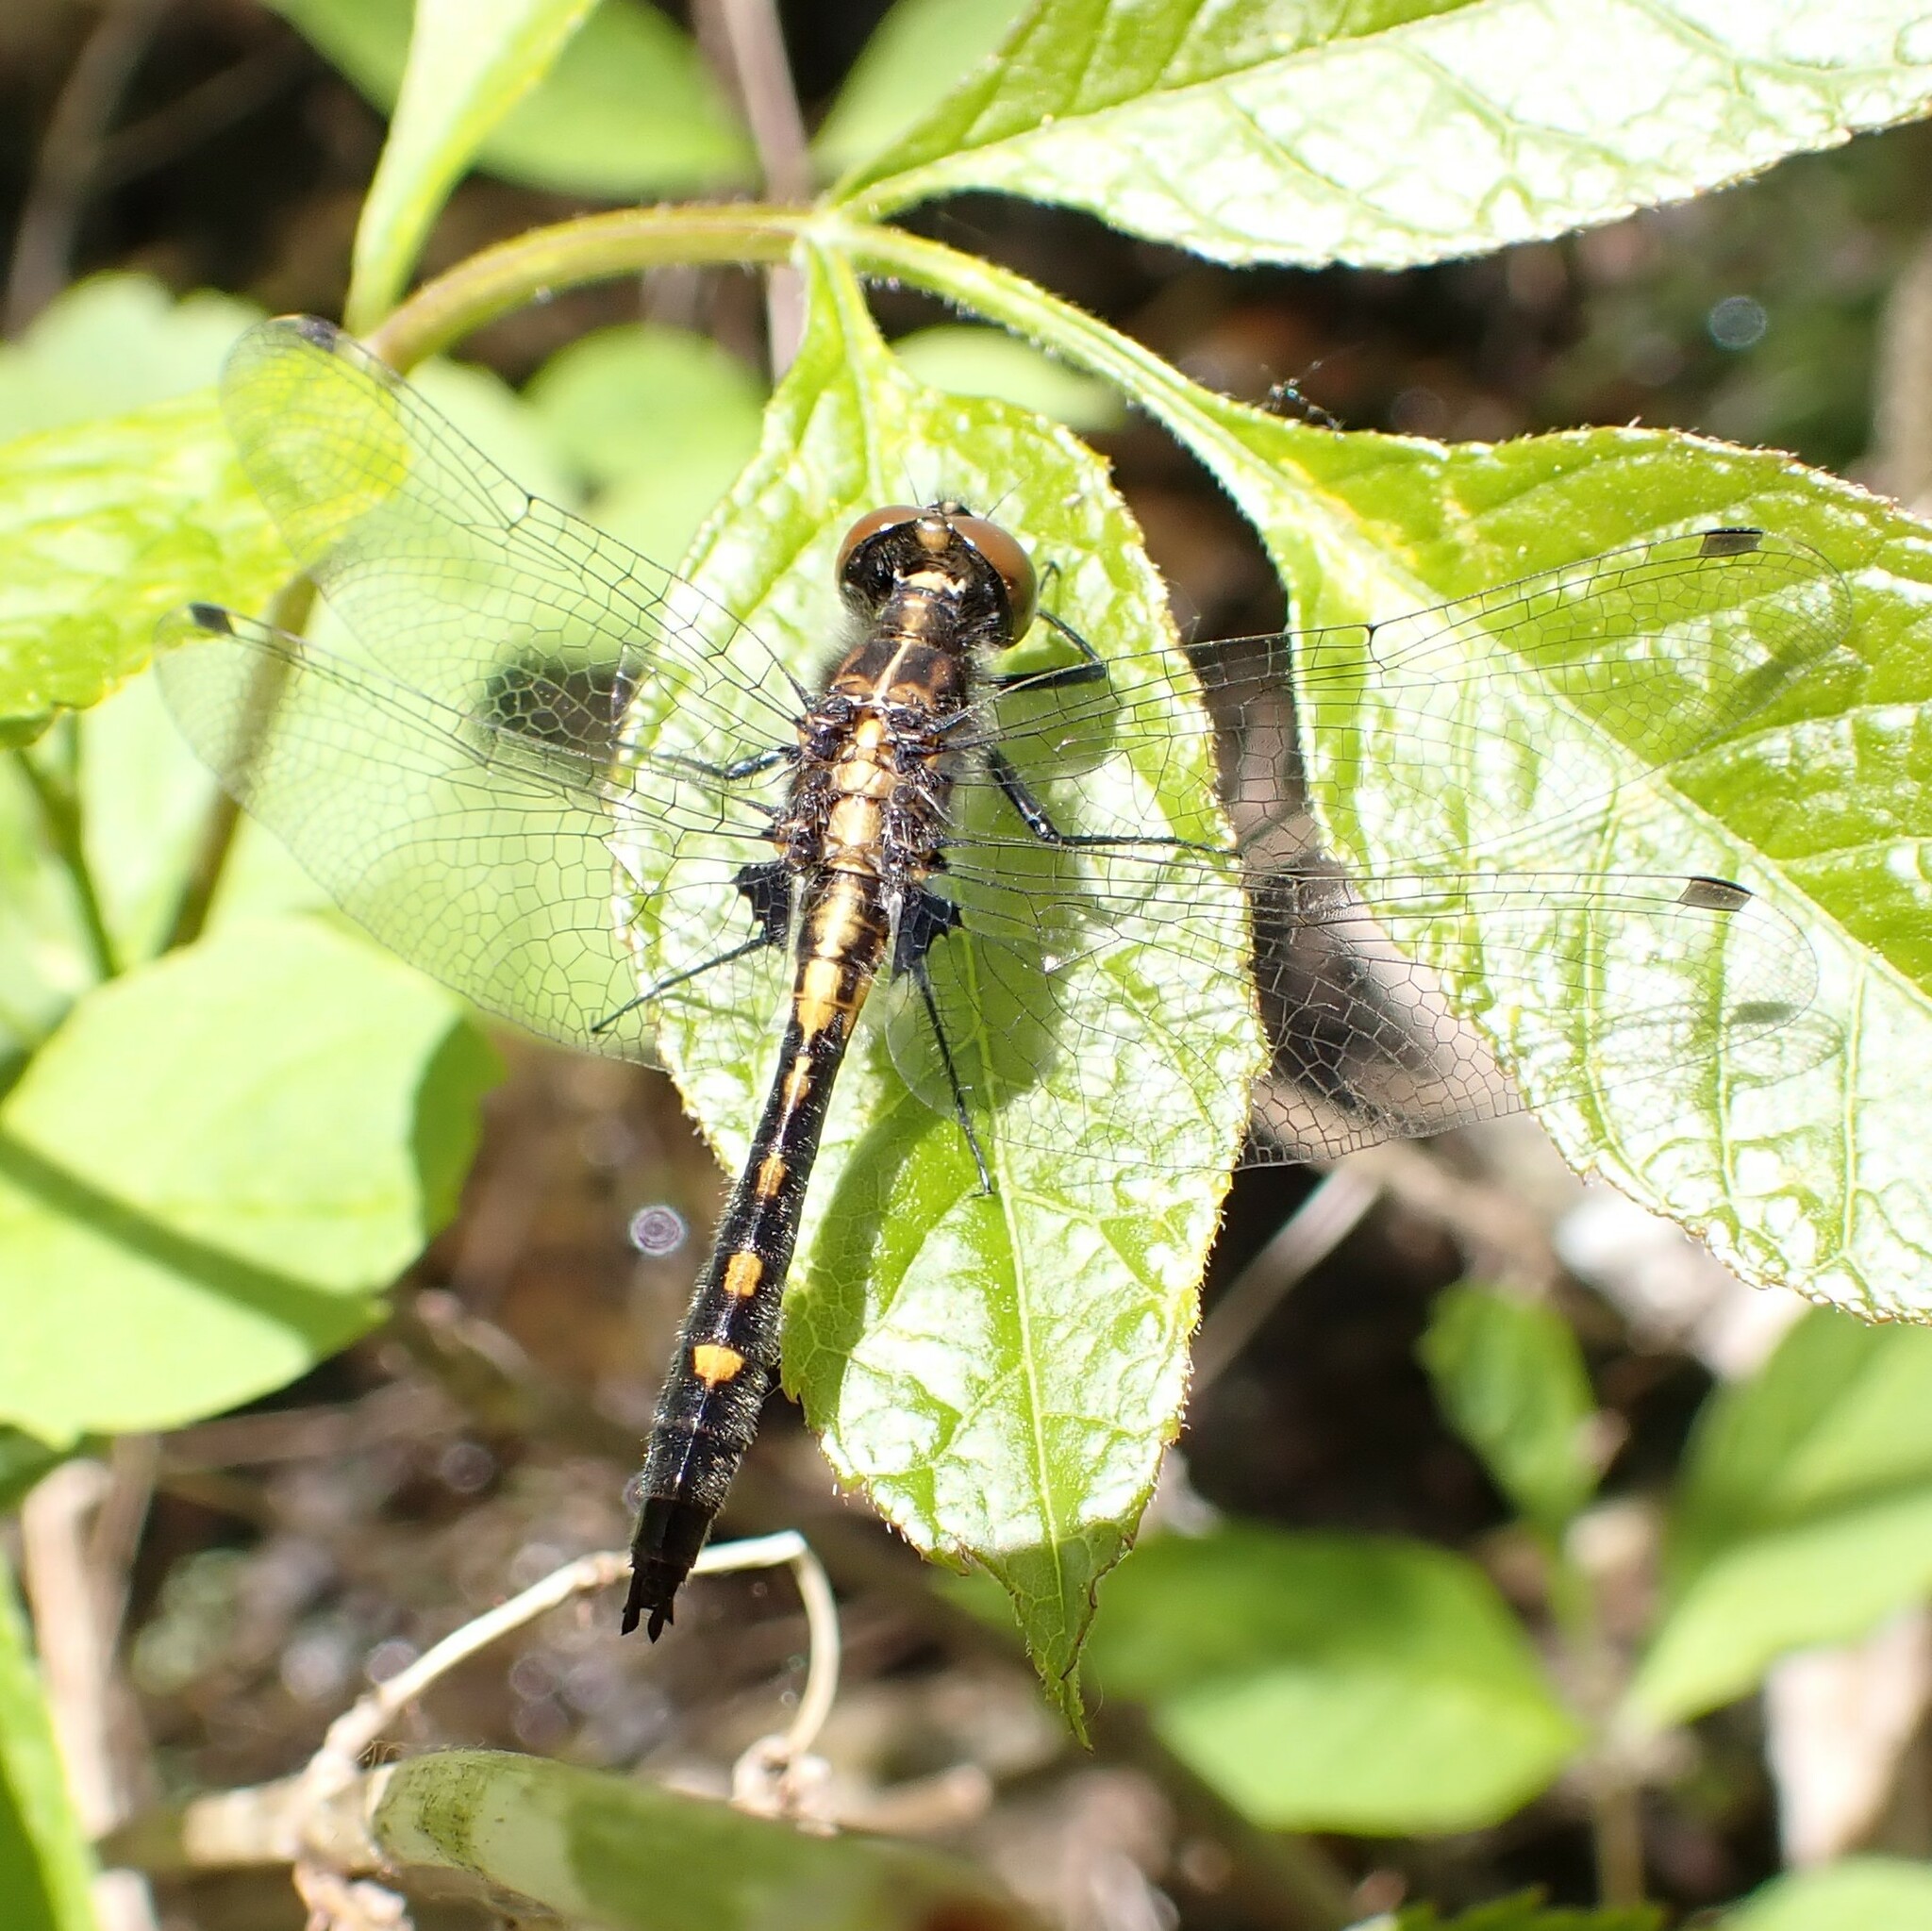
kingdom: Animalia
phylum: Arthropoda
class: Insecta
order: Odonata
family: Libellulidae
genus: Leucorrhinia
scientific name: Leucorrhinia intacta
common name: Dot-tailed whiteface
